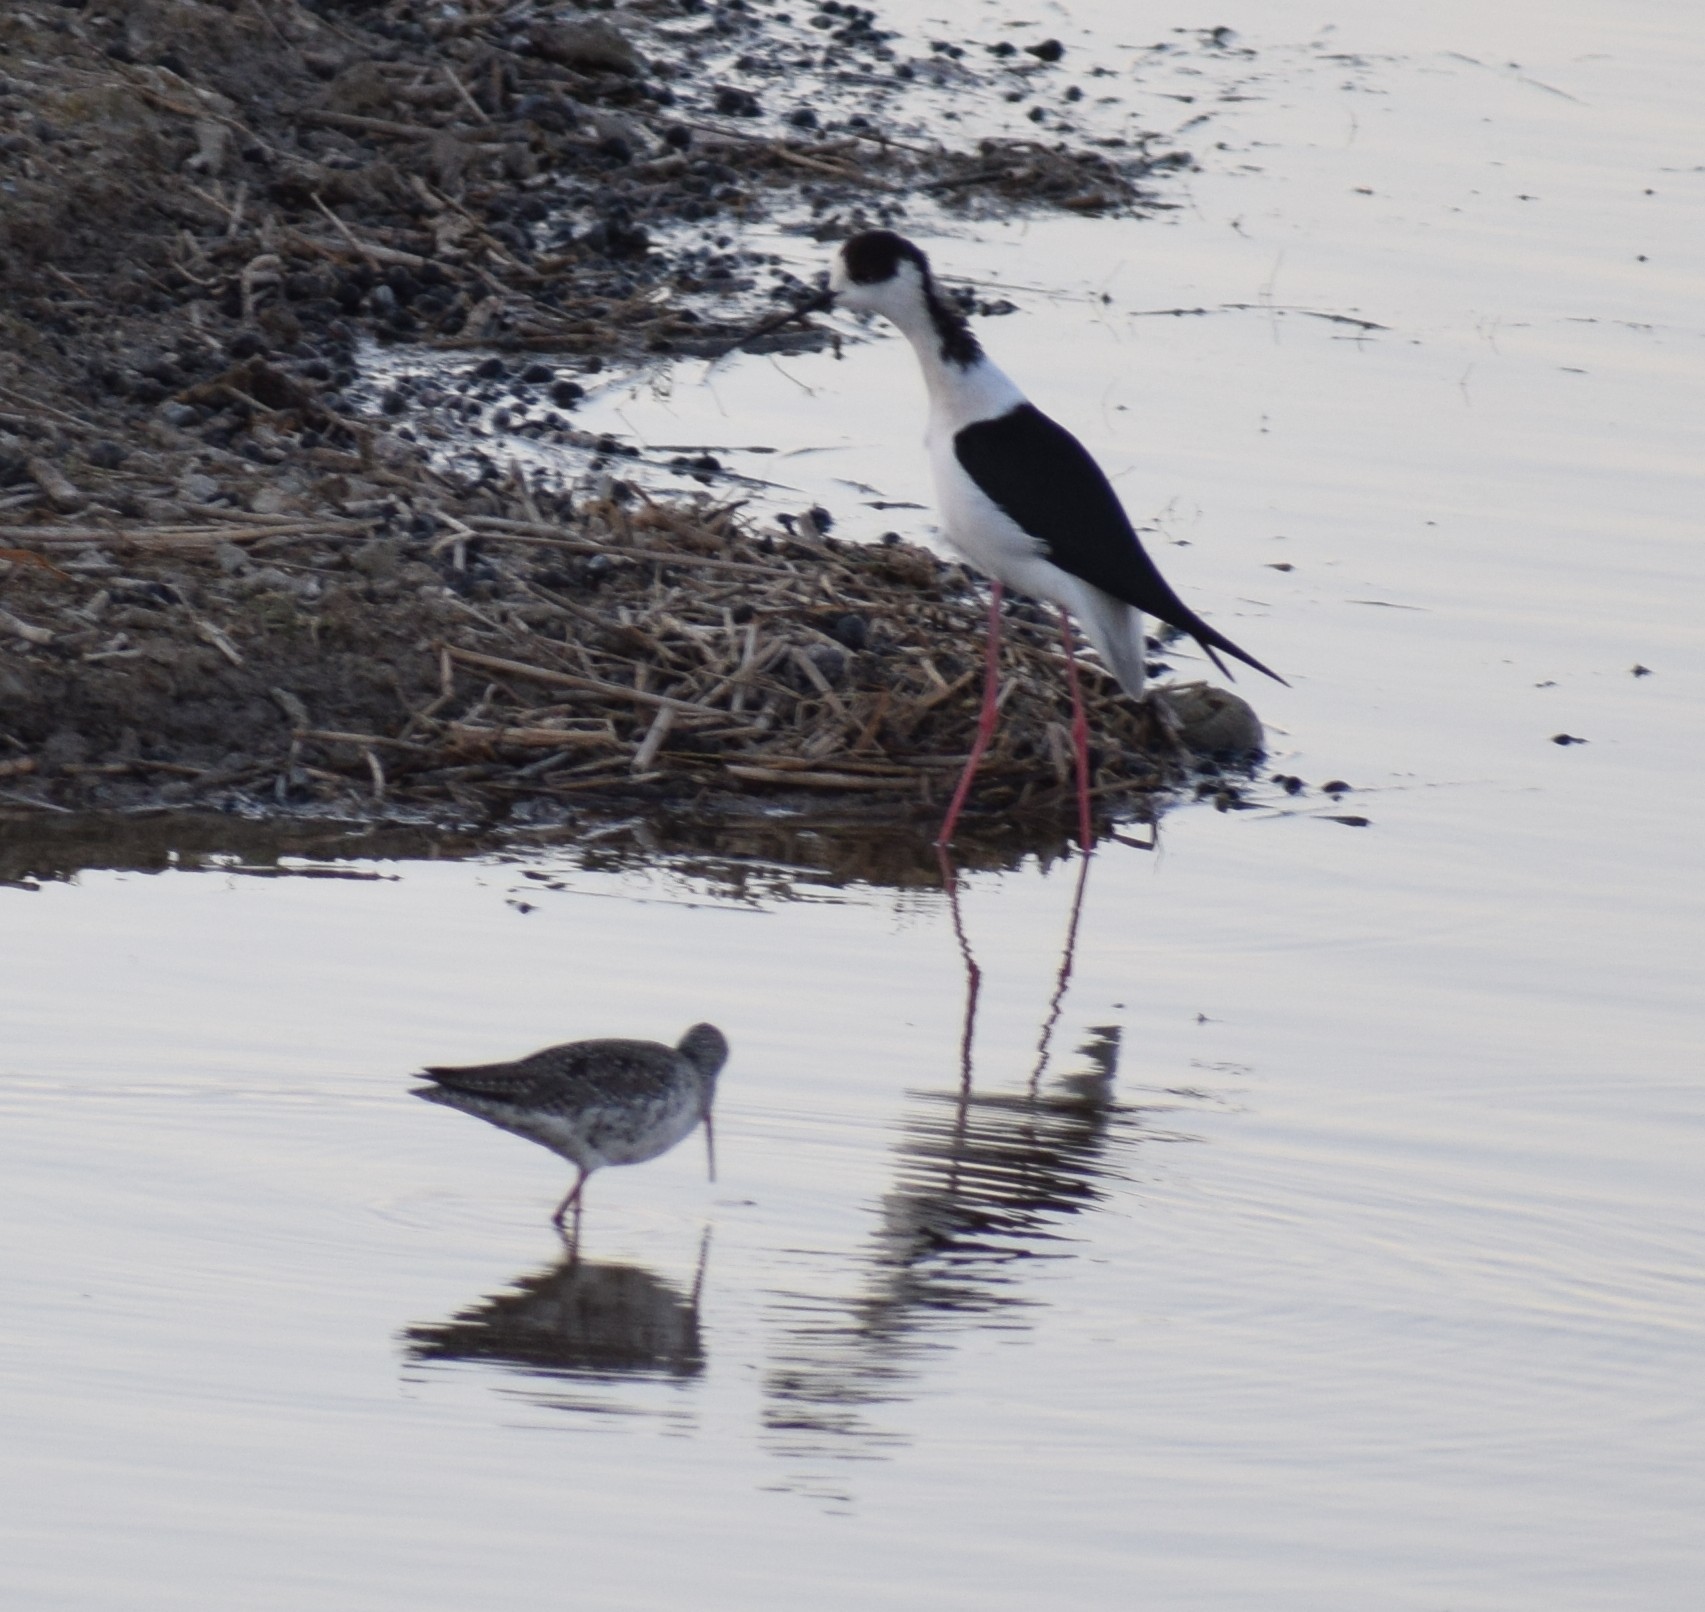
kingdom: Animalia
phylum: Chordata
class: Aves
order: Charadriiformes
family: Scolopacidae
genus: Tringa
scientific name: Tringa erythropus
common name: Spotted redshank
